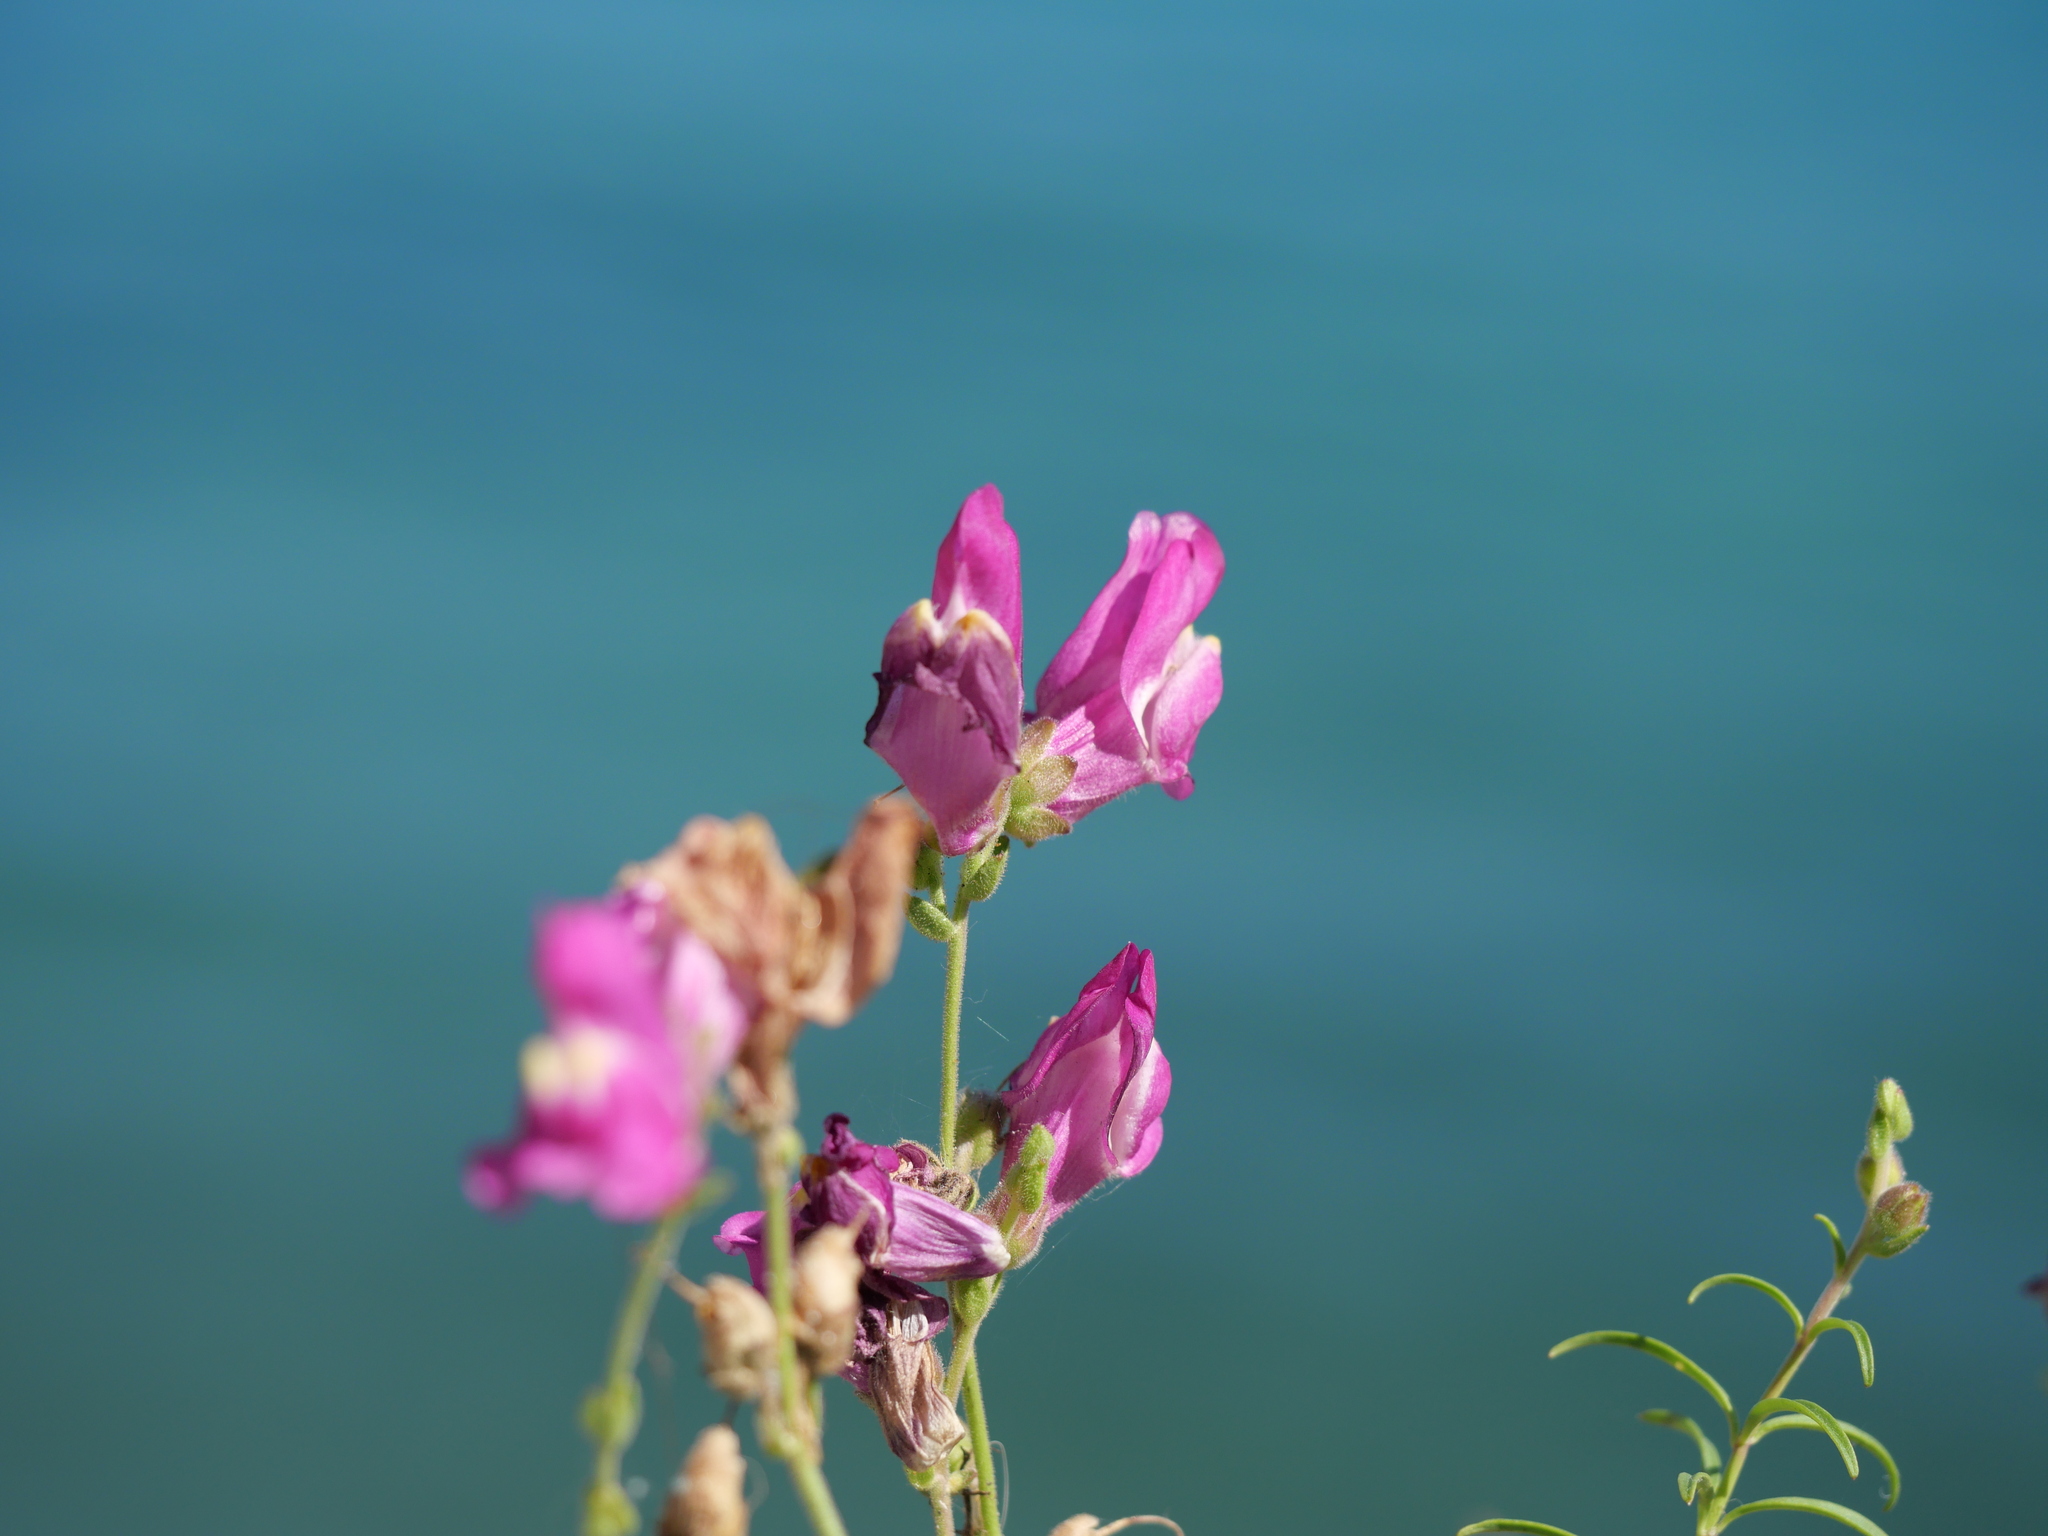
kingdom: Plantae
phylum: Tracheophyta
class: Magnoliopsida
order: Lamiales
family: Plantaginaceae
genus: Antirrhinum
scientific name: Antirrhinum tortuosum
